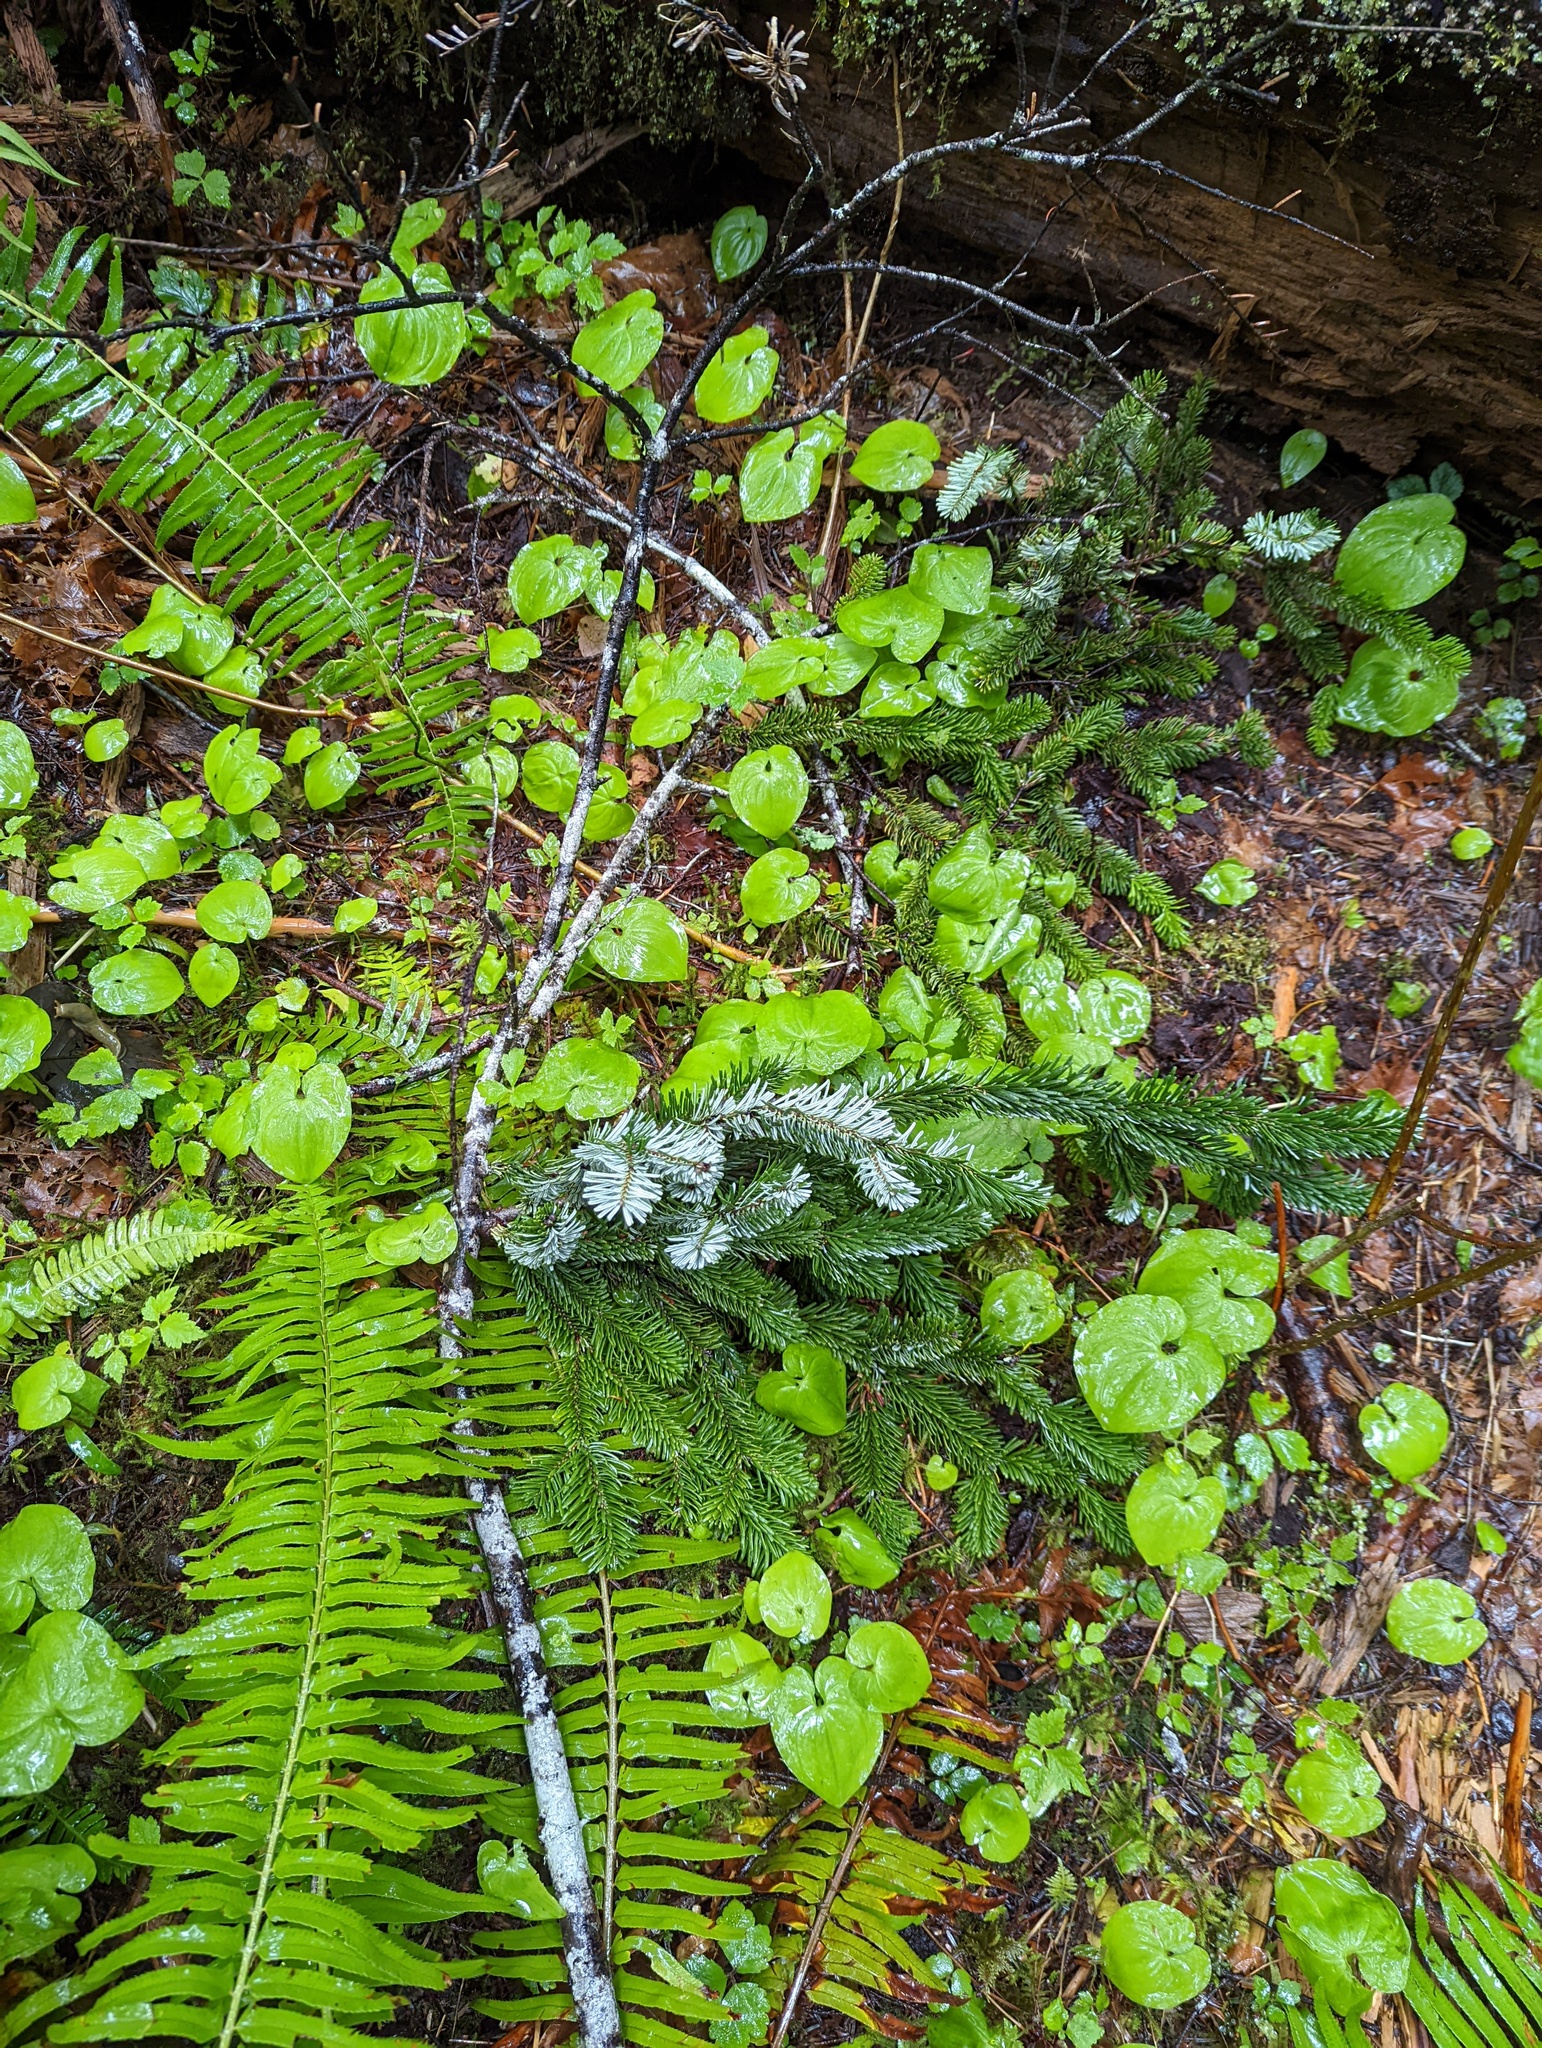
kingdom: Plantae
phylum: Tracheophyta
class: Liliopsida
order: Asparagales
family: Asparagaceae
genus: Maianthemum
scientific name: Maianthemum dilatatum
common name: False lily-of-the-valley
